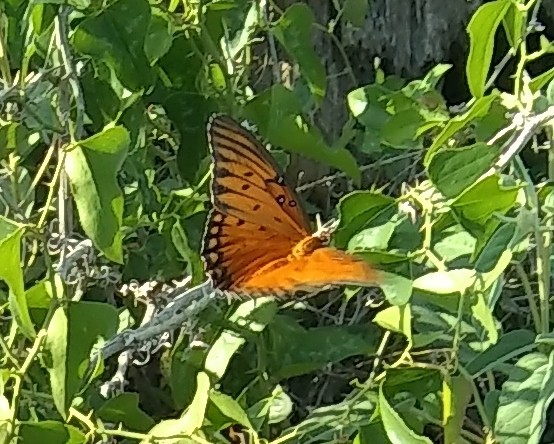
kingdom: Animalia
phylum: Arthropoda
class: Insecta
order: Lepidoptera
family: Nymphalidae
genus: Dione
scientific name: Dione vanillae
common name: Gulf fritillary
